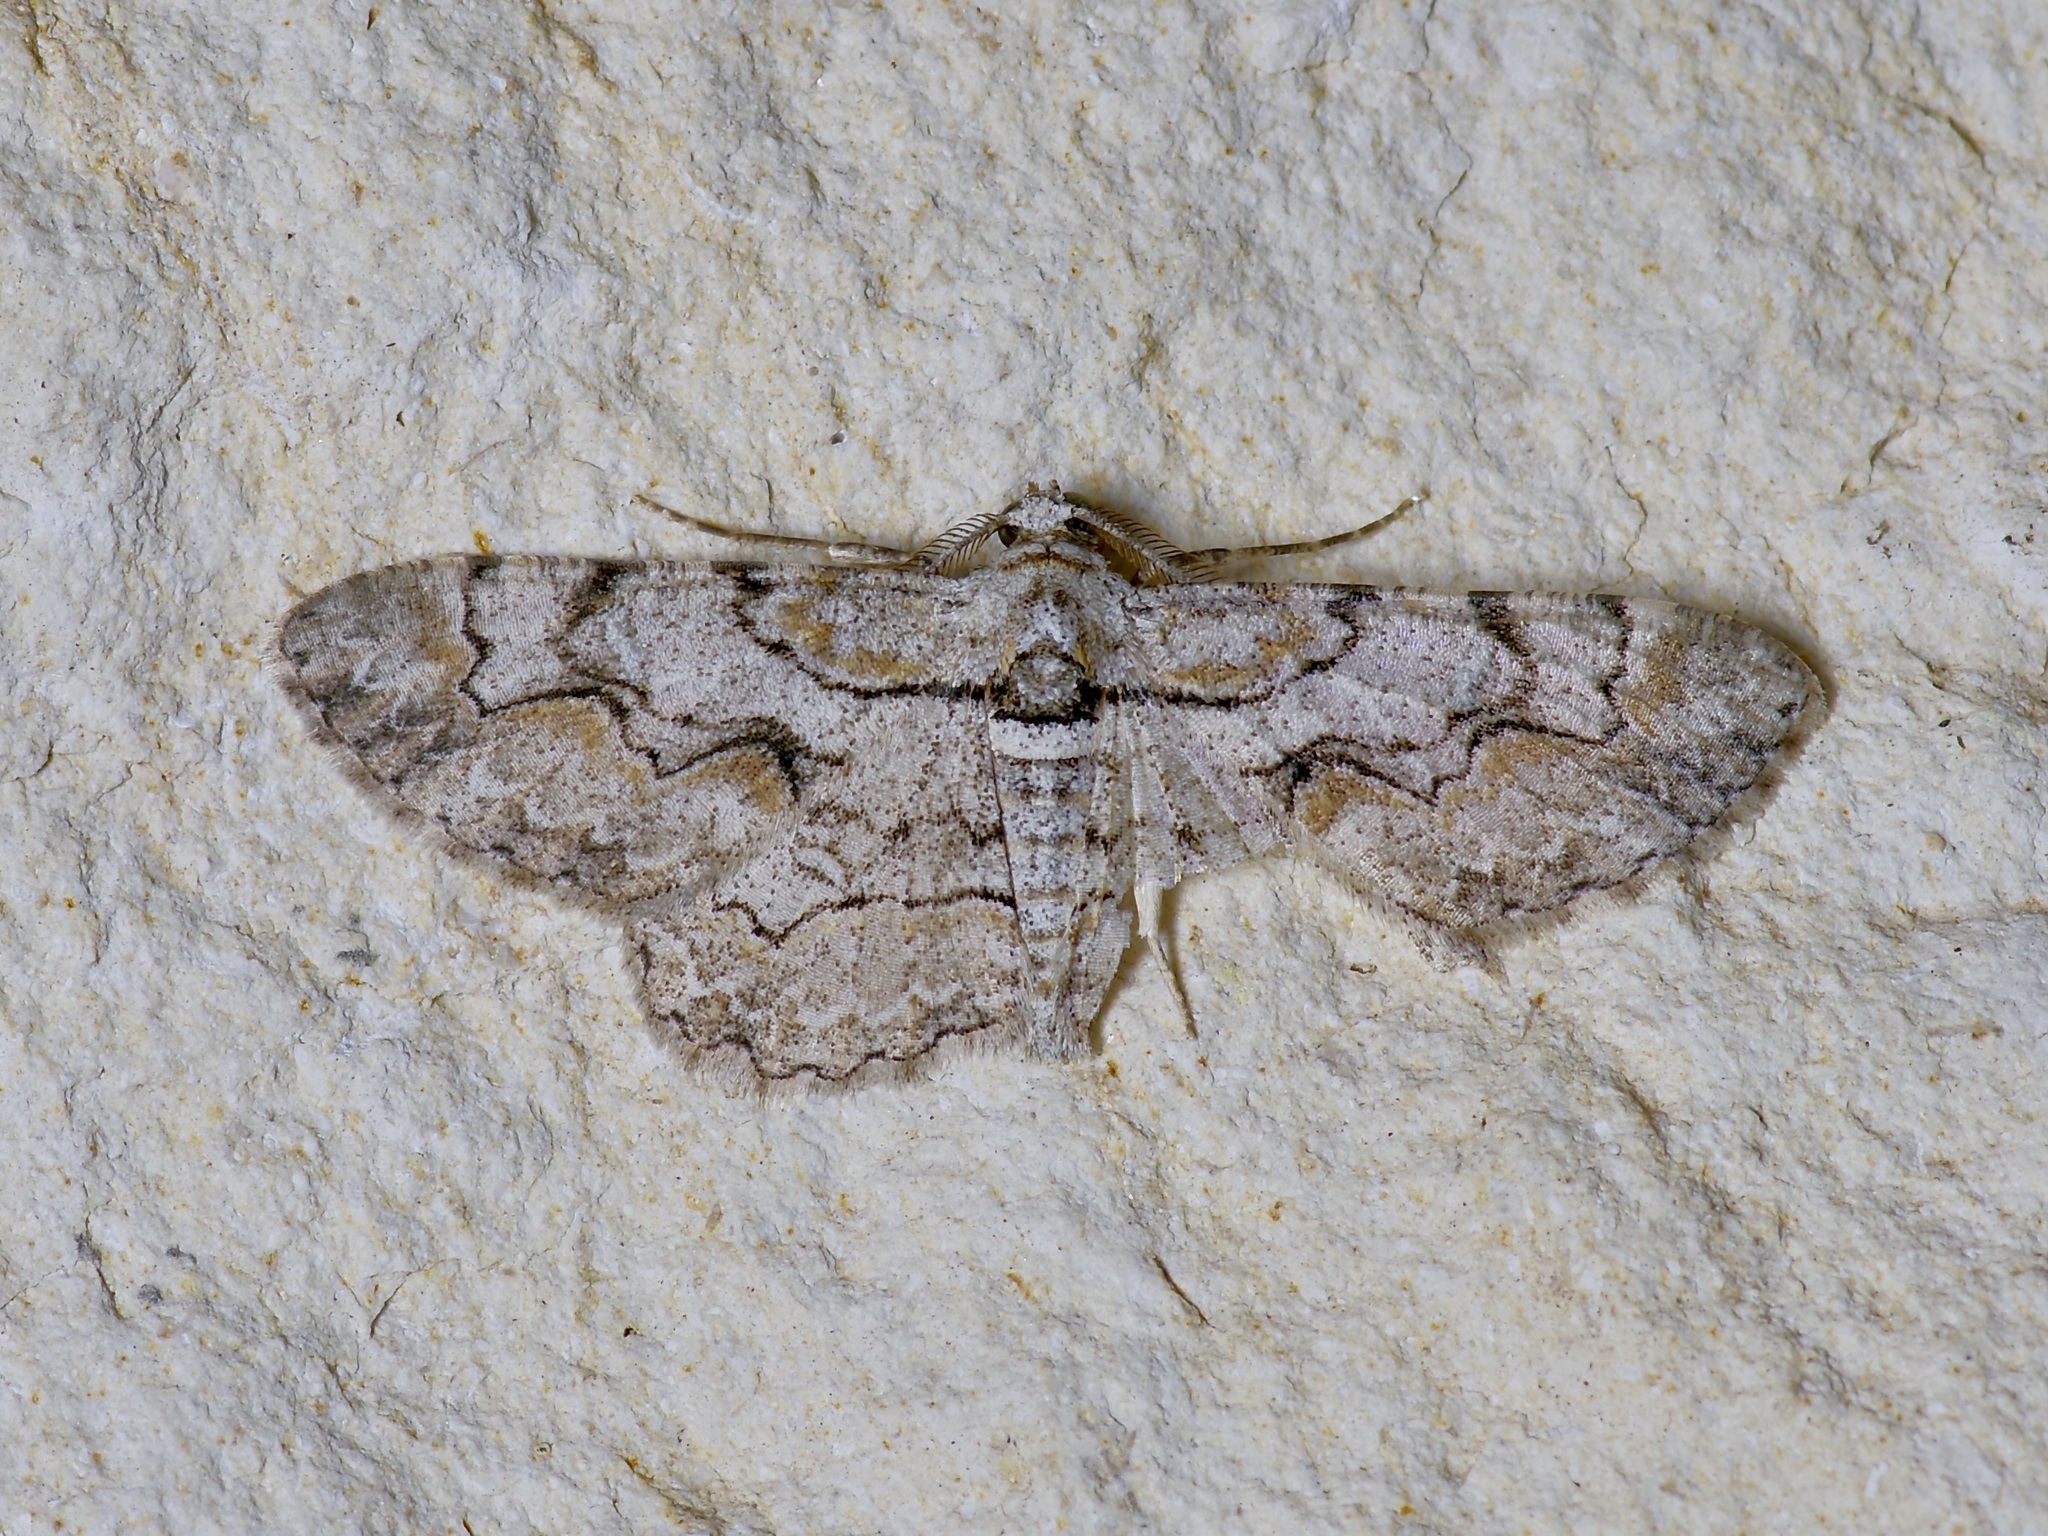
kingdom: Animalia
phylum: Arthropoda
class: Insecta
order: Lepidoptera
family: Geometridae
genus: Iridopsis
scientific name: Iridopsis defectaria
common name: Brown-shaded gray
